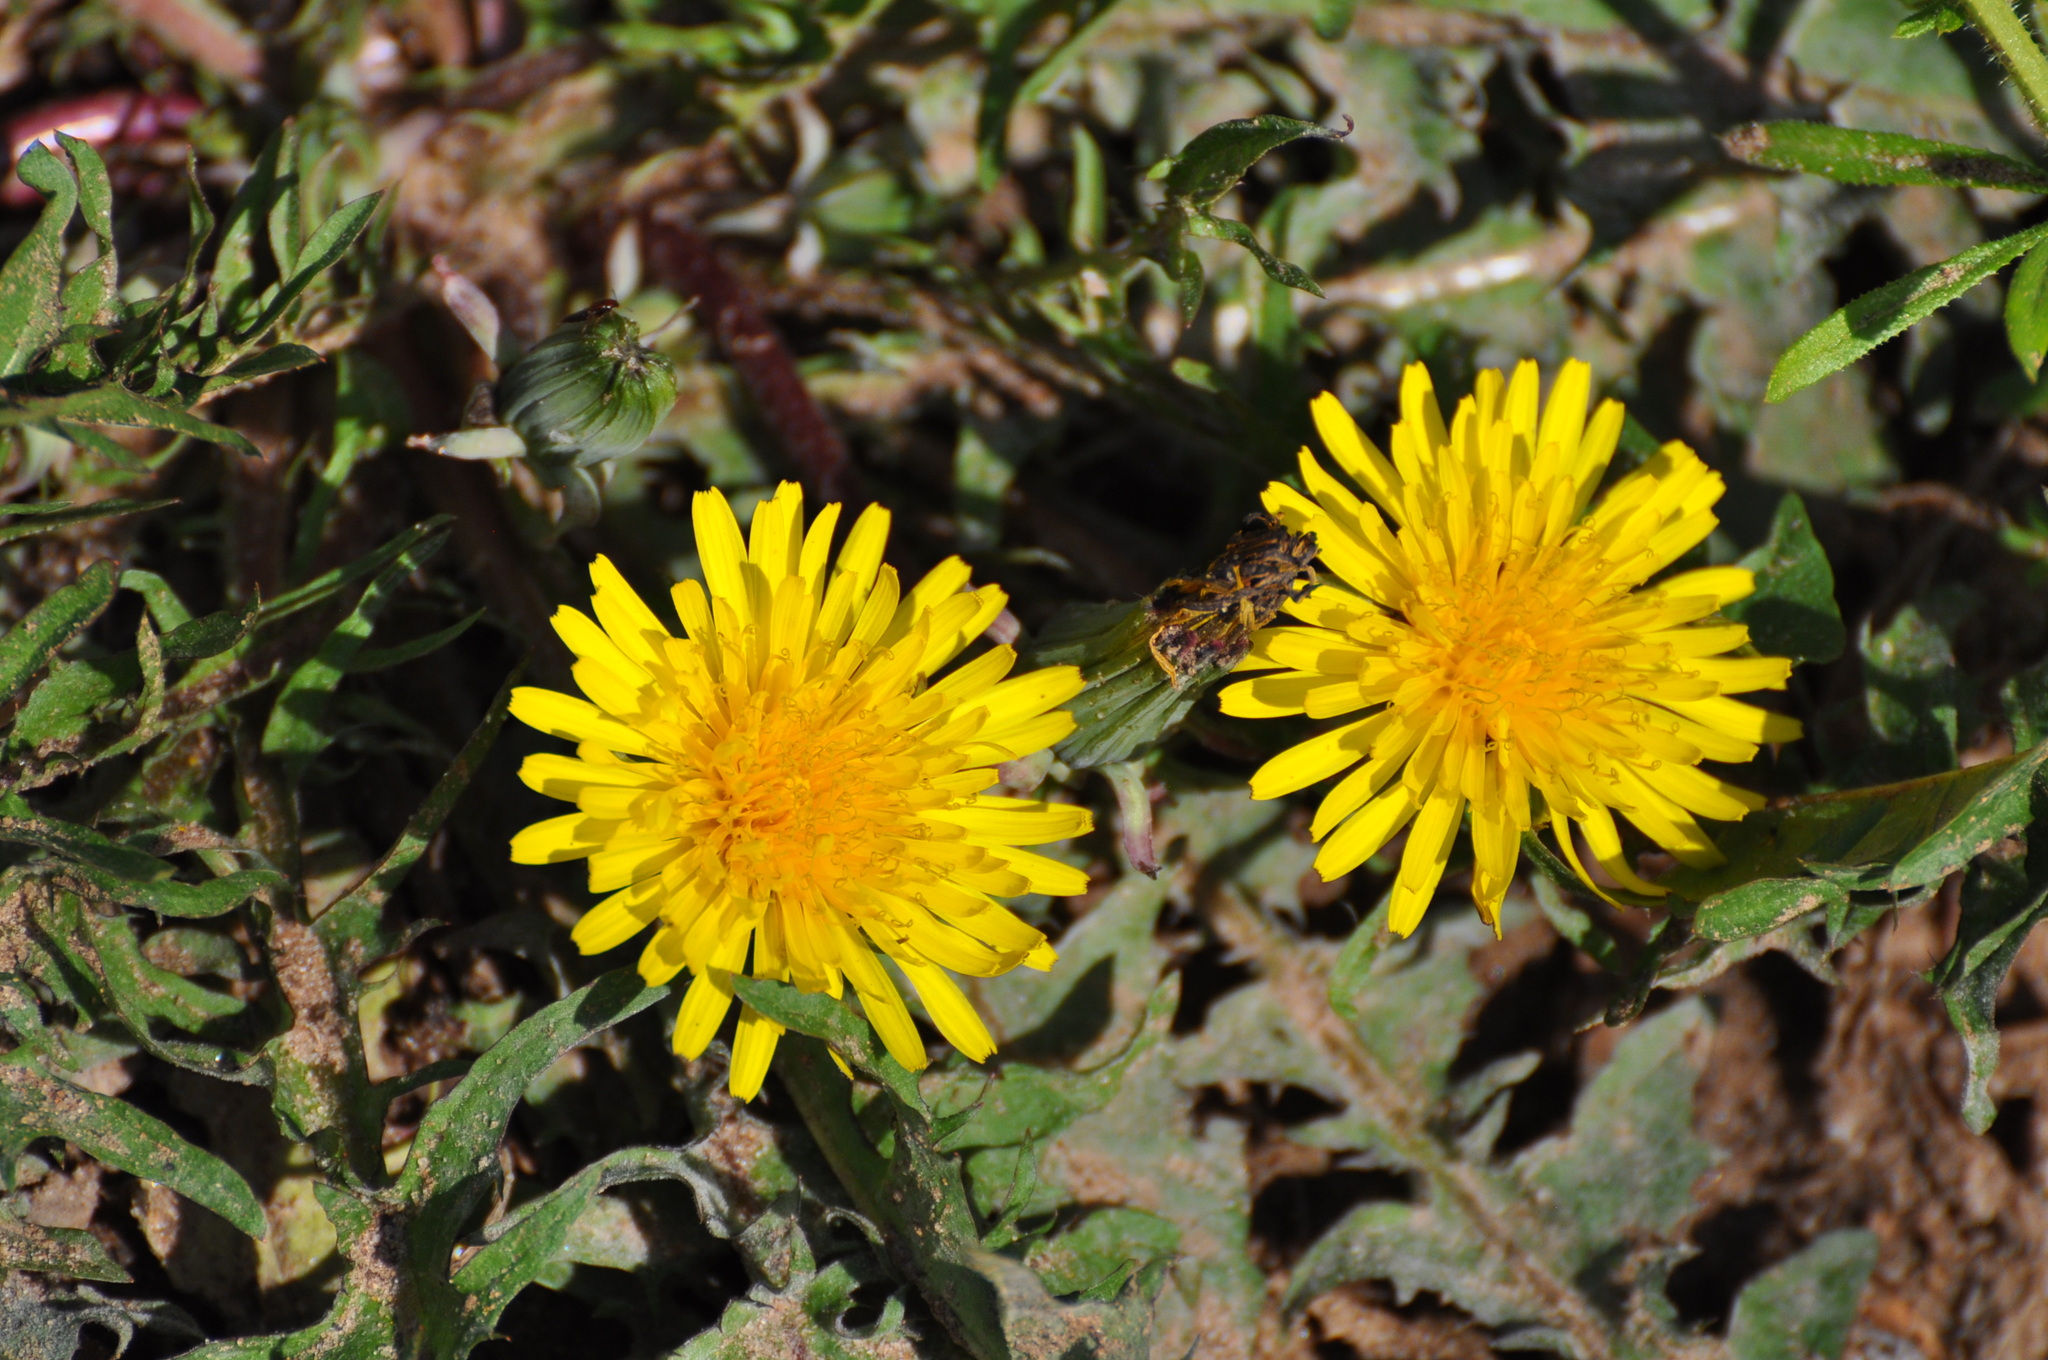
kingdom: Plantae
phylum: Tracheophyta
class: Magnoliopsida
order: Asterales
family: Asteraceae
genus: Taraxacum
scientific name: Taraxacum officinale
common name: Common dandelion
